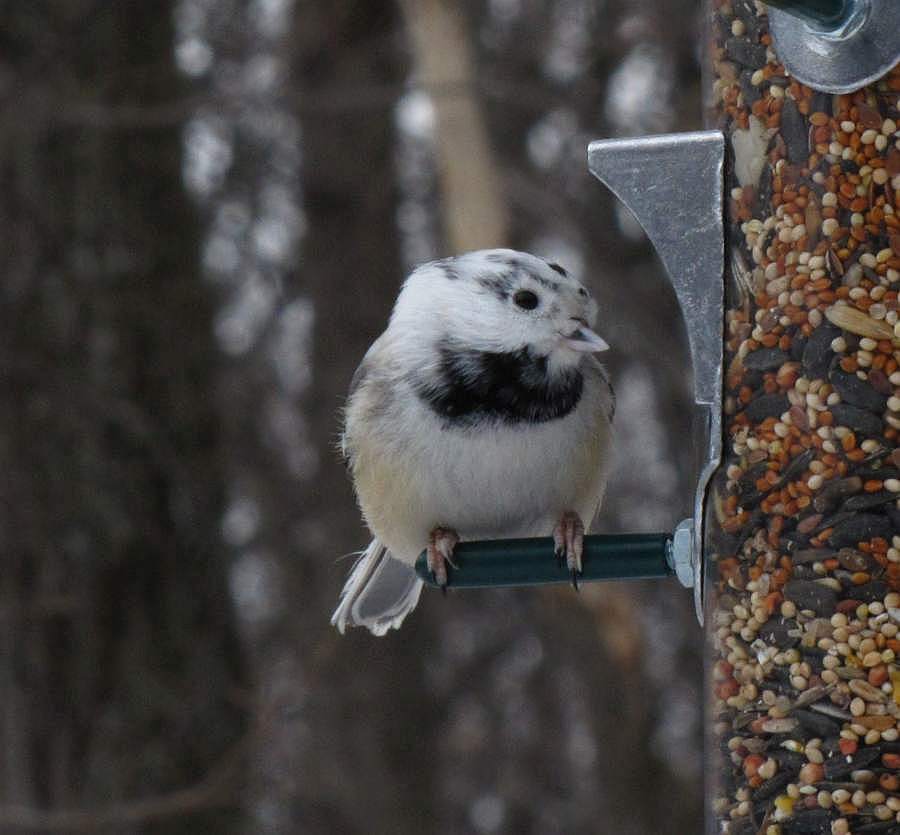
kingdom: Animalia
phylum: Chordata
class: Aves
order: Passeriformes
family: Paridae
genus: Poecile
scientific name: Poecile atricapillus
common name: Black-capped chickadee
